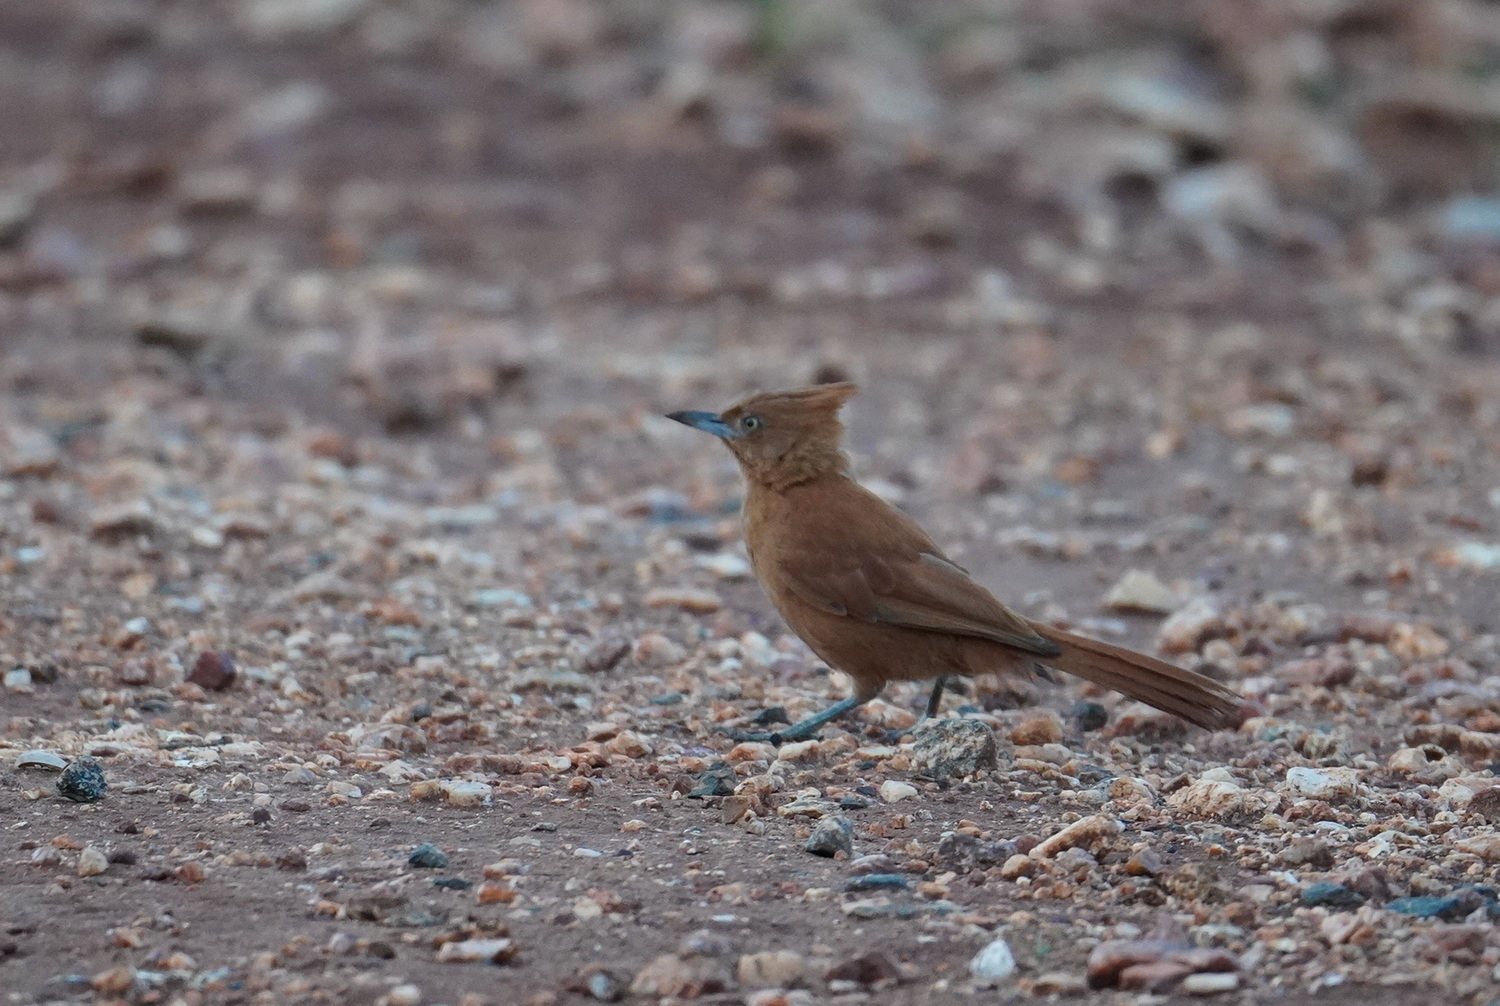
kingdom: Animalia
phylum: Chordata
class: Aves
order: Passeriformes
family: Furnariidae
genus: Pseudoseisura
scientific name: Pseudoseisura cristata
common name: Caatinga cacholote
